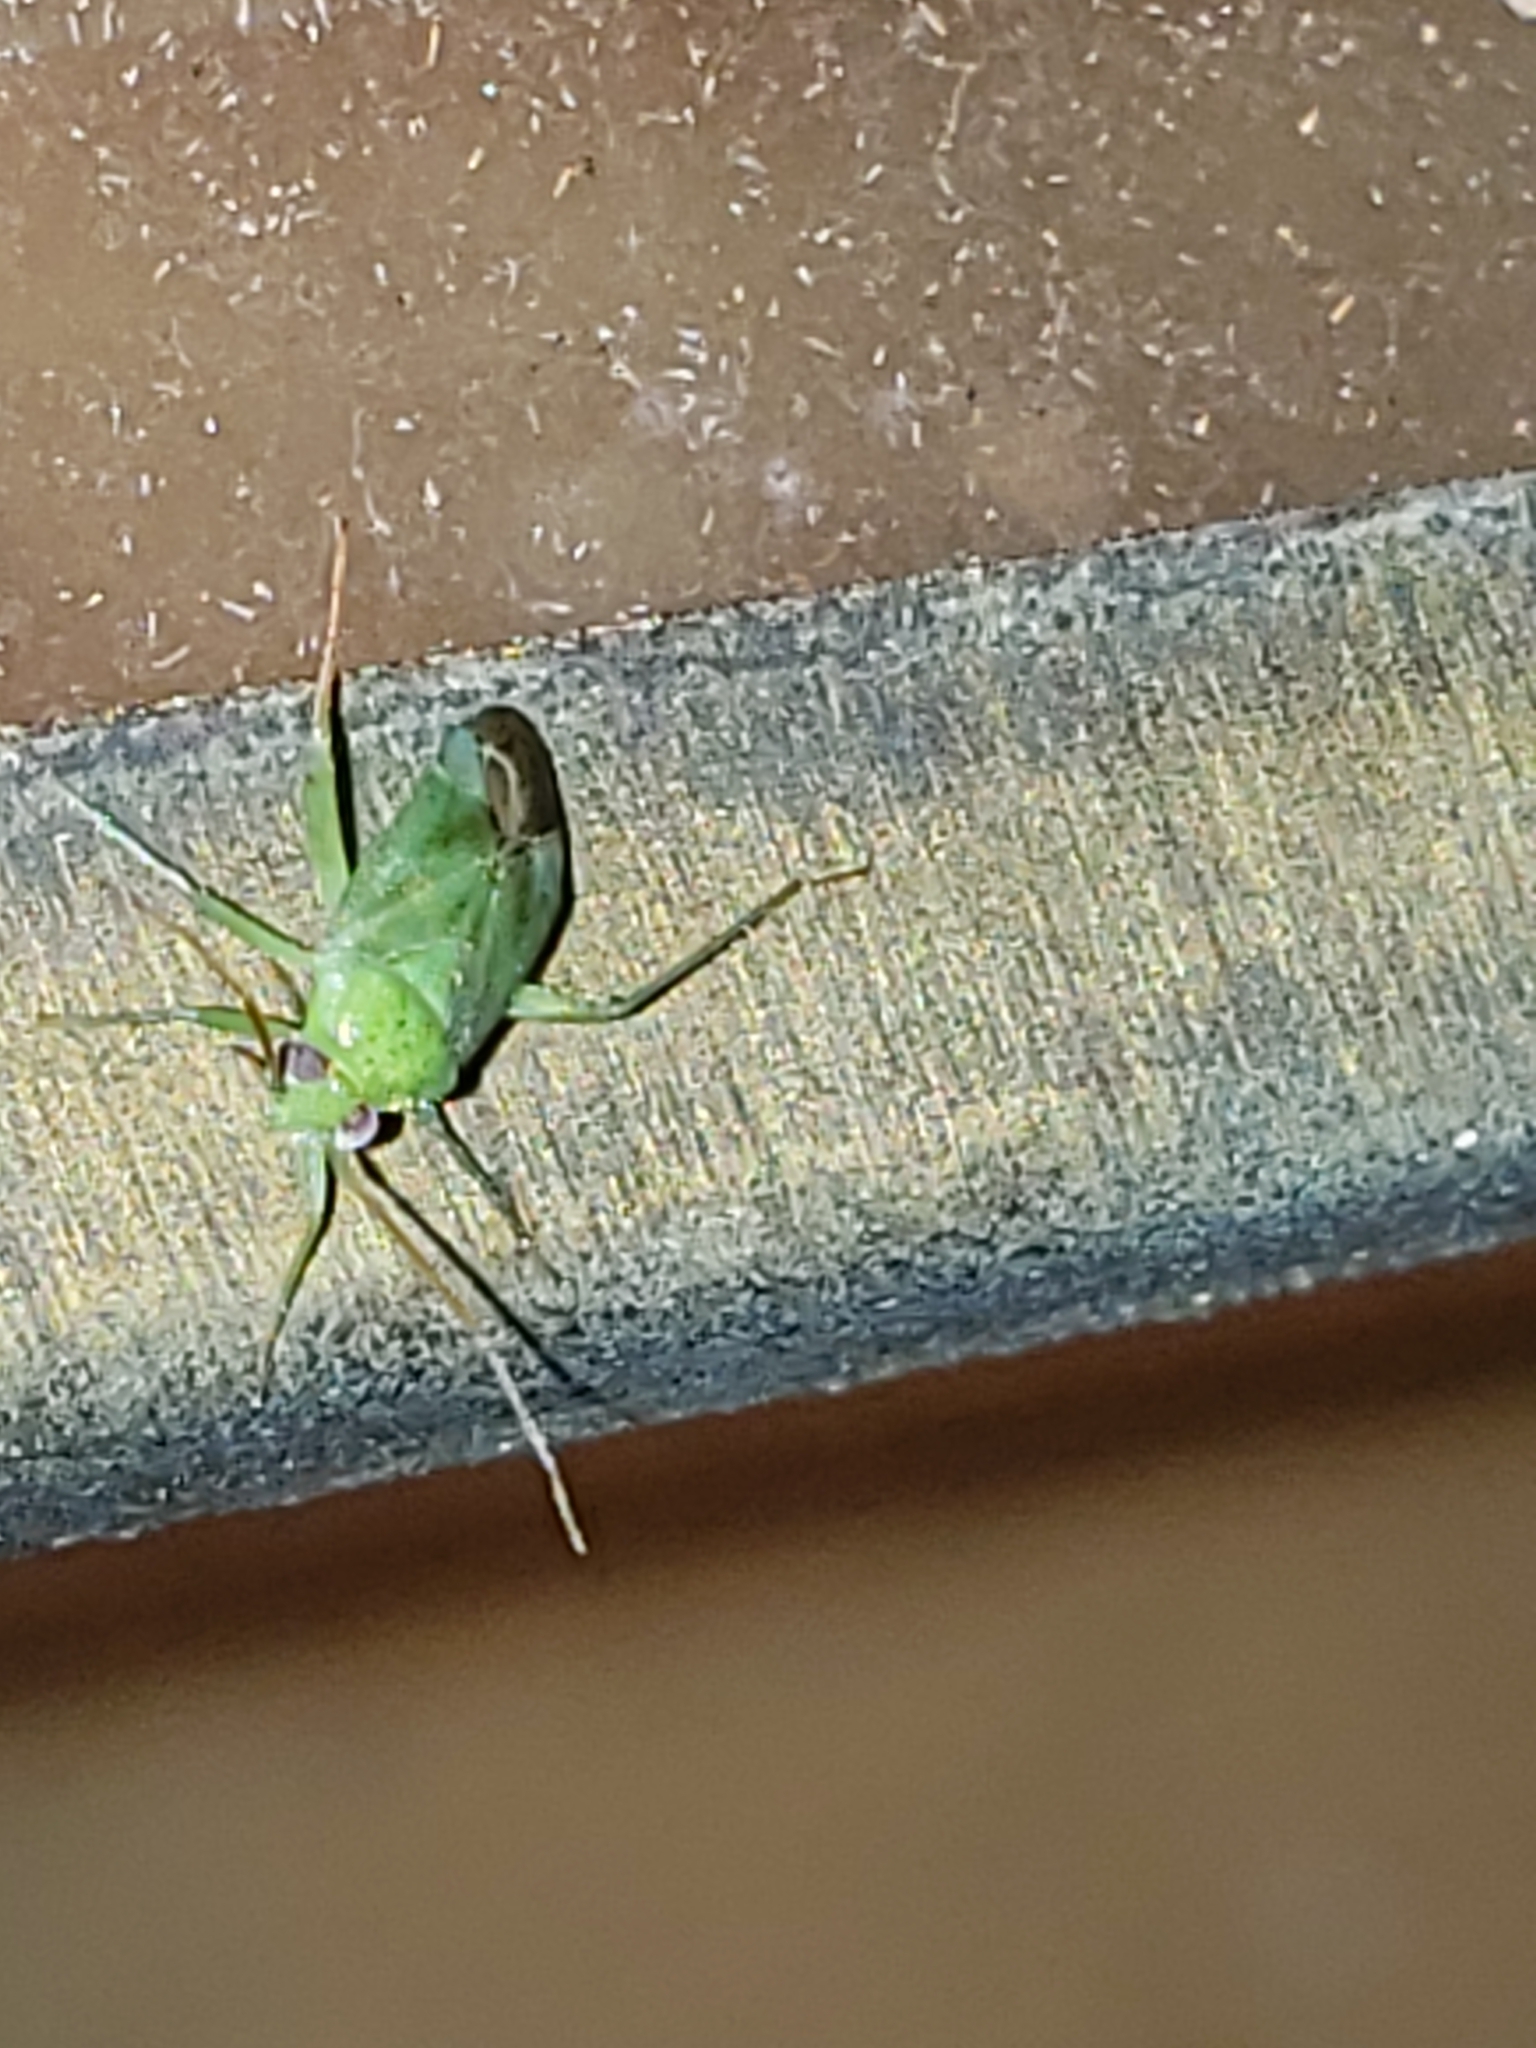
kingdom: Animalia
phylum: Arthropoda
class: Insecta
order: Hemiptera
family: Miridae
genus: Taylorilygus
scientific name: Taylorilygus apicalis
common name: Plant bug
